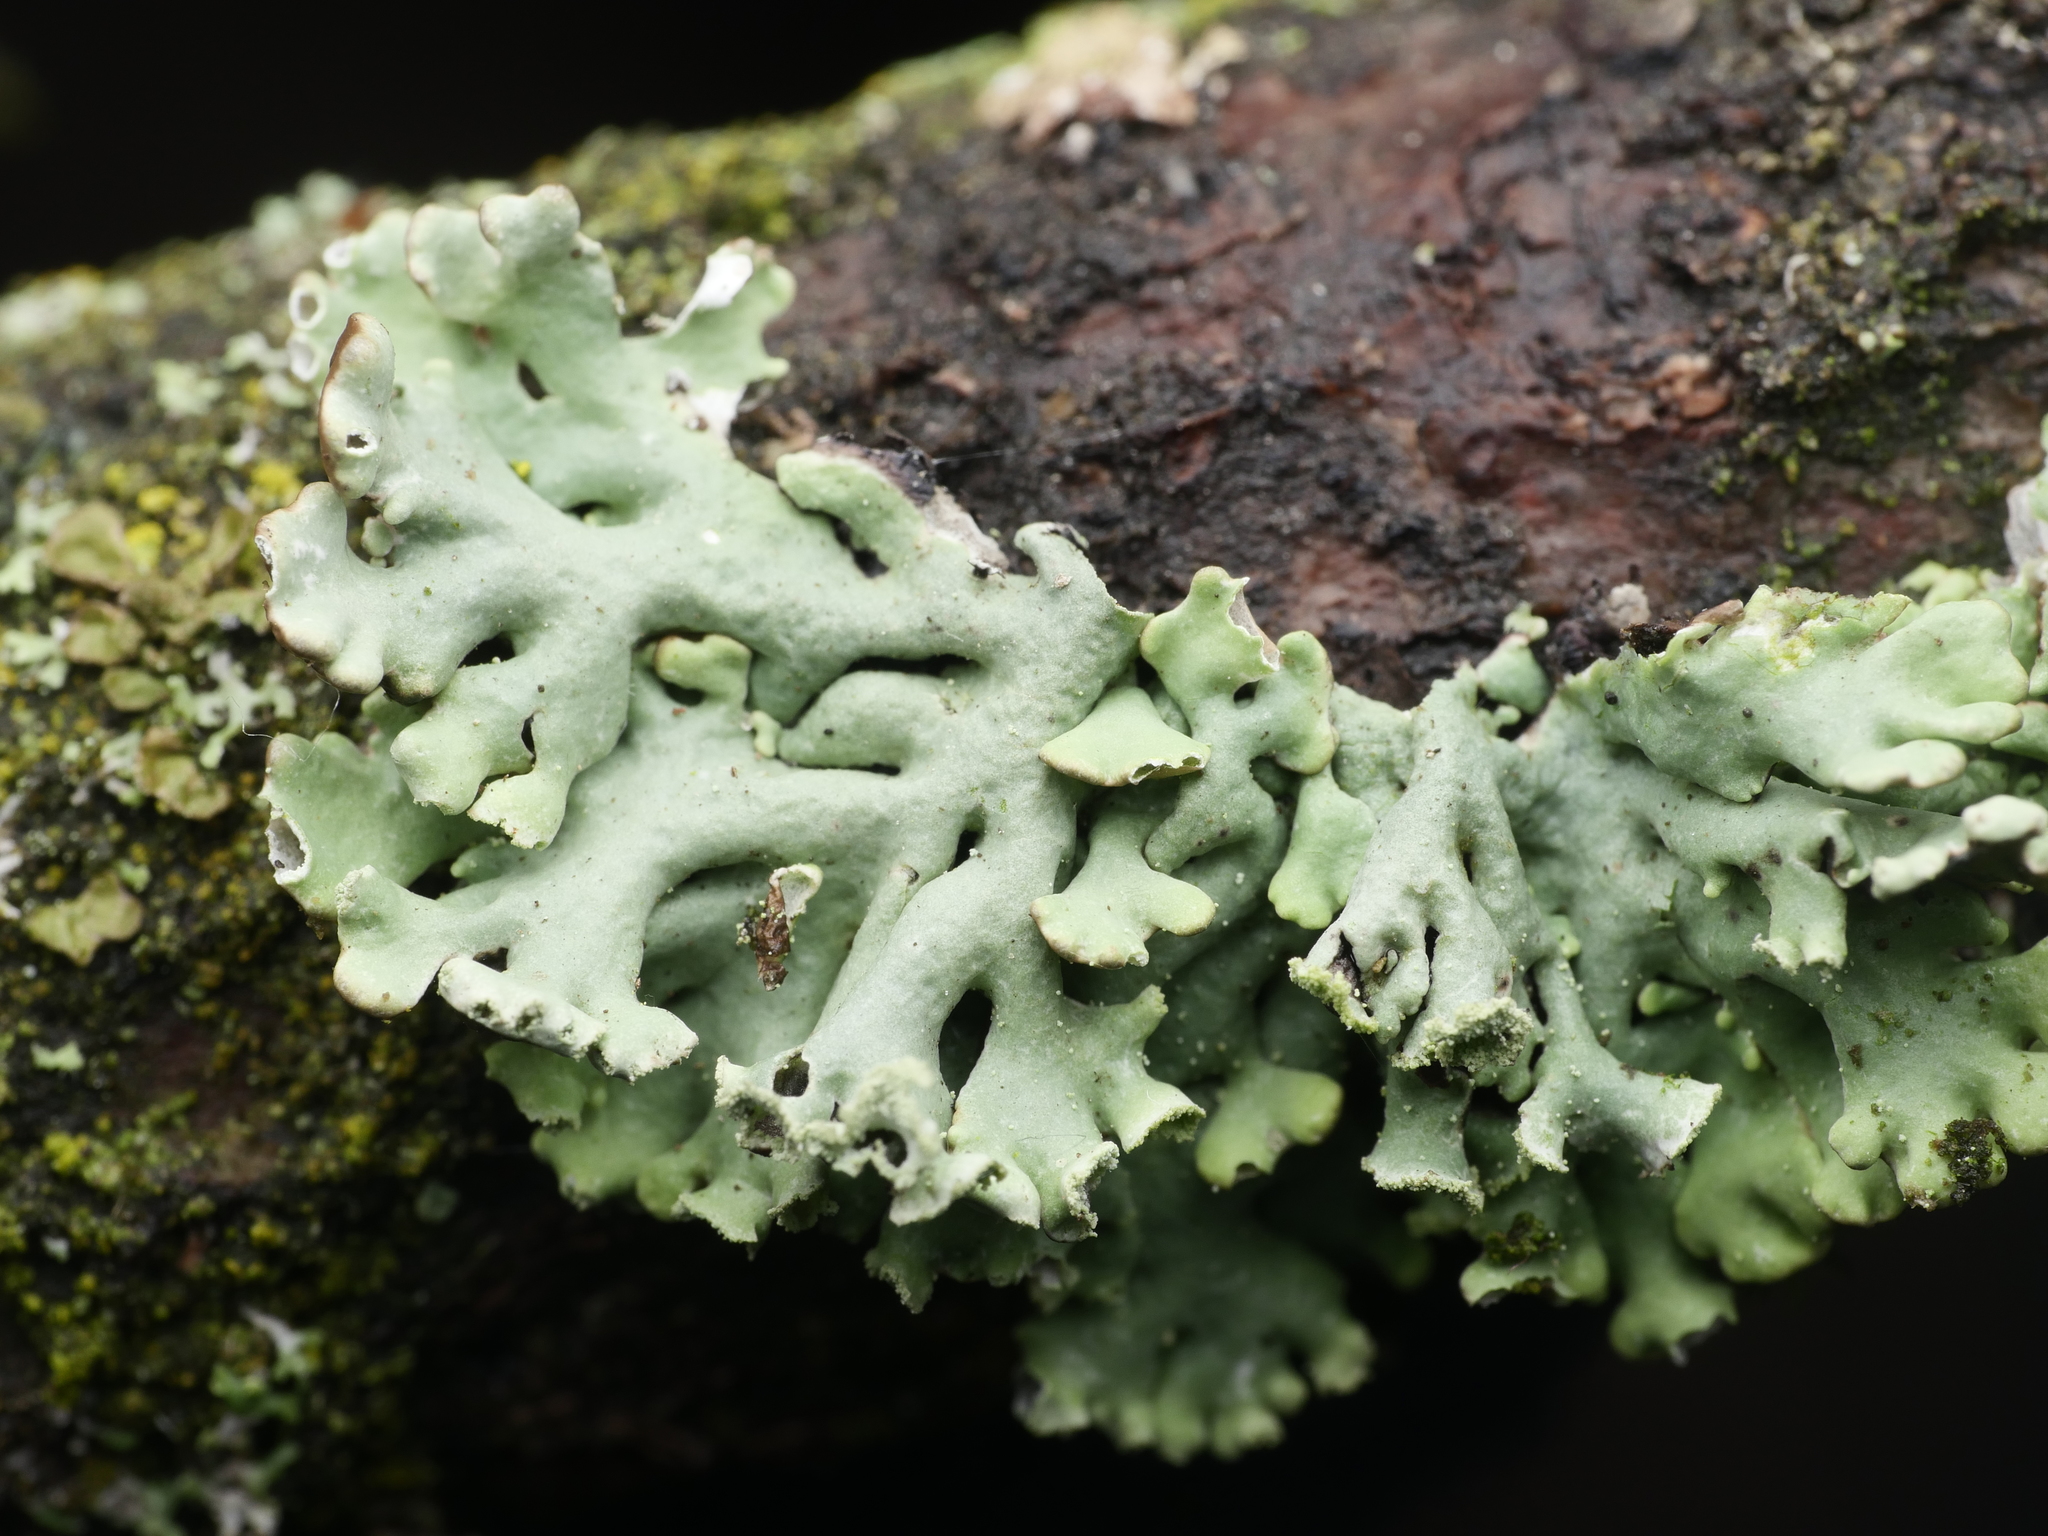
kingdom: Fungi
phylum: Ascomycota
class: Lecanoromycetes
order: Lecanorales
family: Parmeliaceae
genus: Hypogymnia
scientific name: Hypogymnia physodes
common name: Dark crottle
